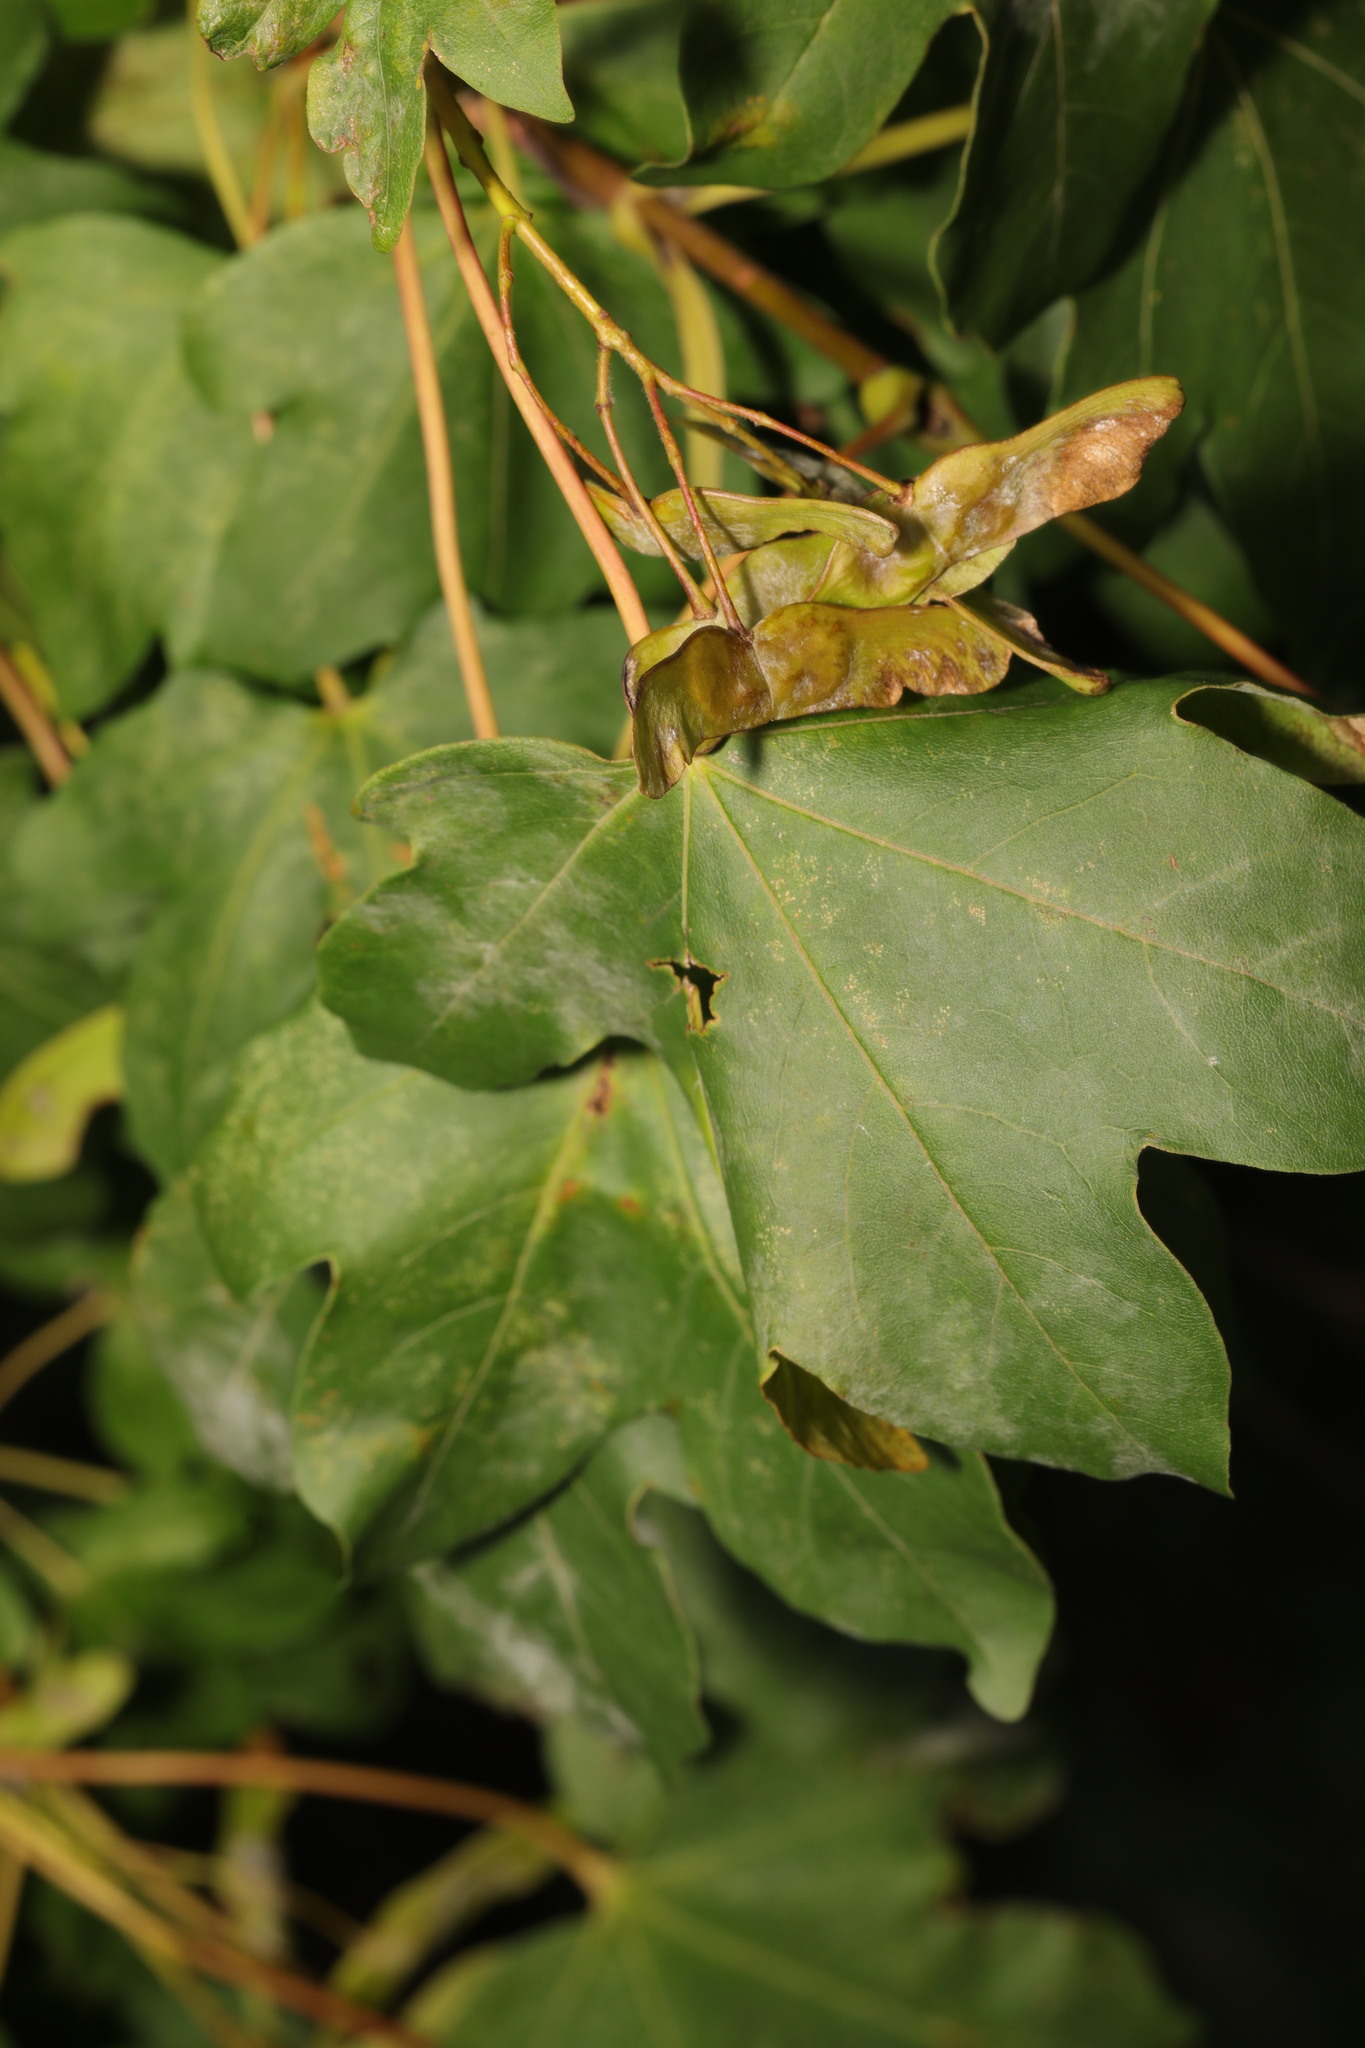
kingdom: Plantae
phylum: Tracheophyta
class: Magnoliopsida
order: Sapindales
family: Sapindaceae
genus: Acer
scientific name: Acer campestre
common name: Field maple
